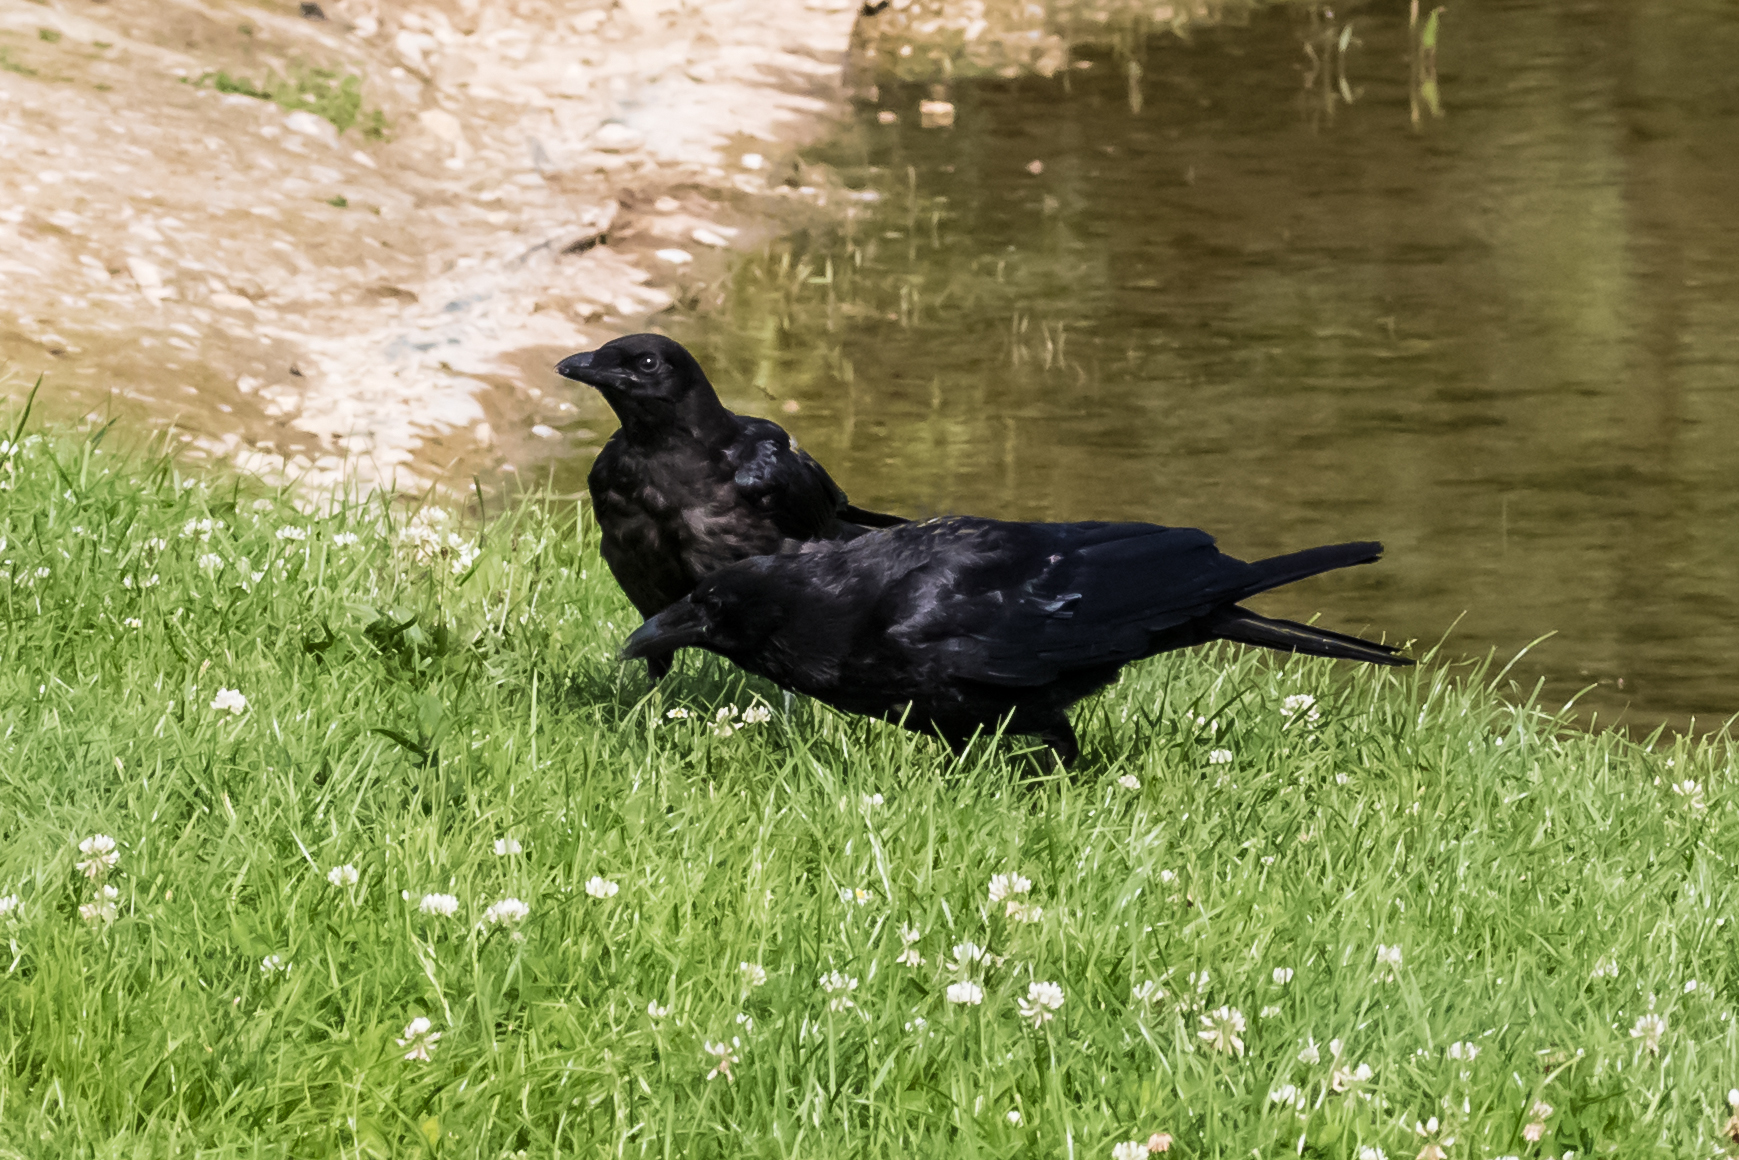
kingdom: Animalia
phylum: Chordata
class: Aves
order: Passeriformes
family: Corvidae
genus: Corvus
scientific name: Corvus corone
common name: Carrion crow
